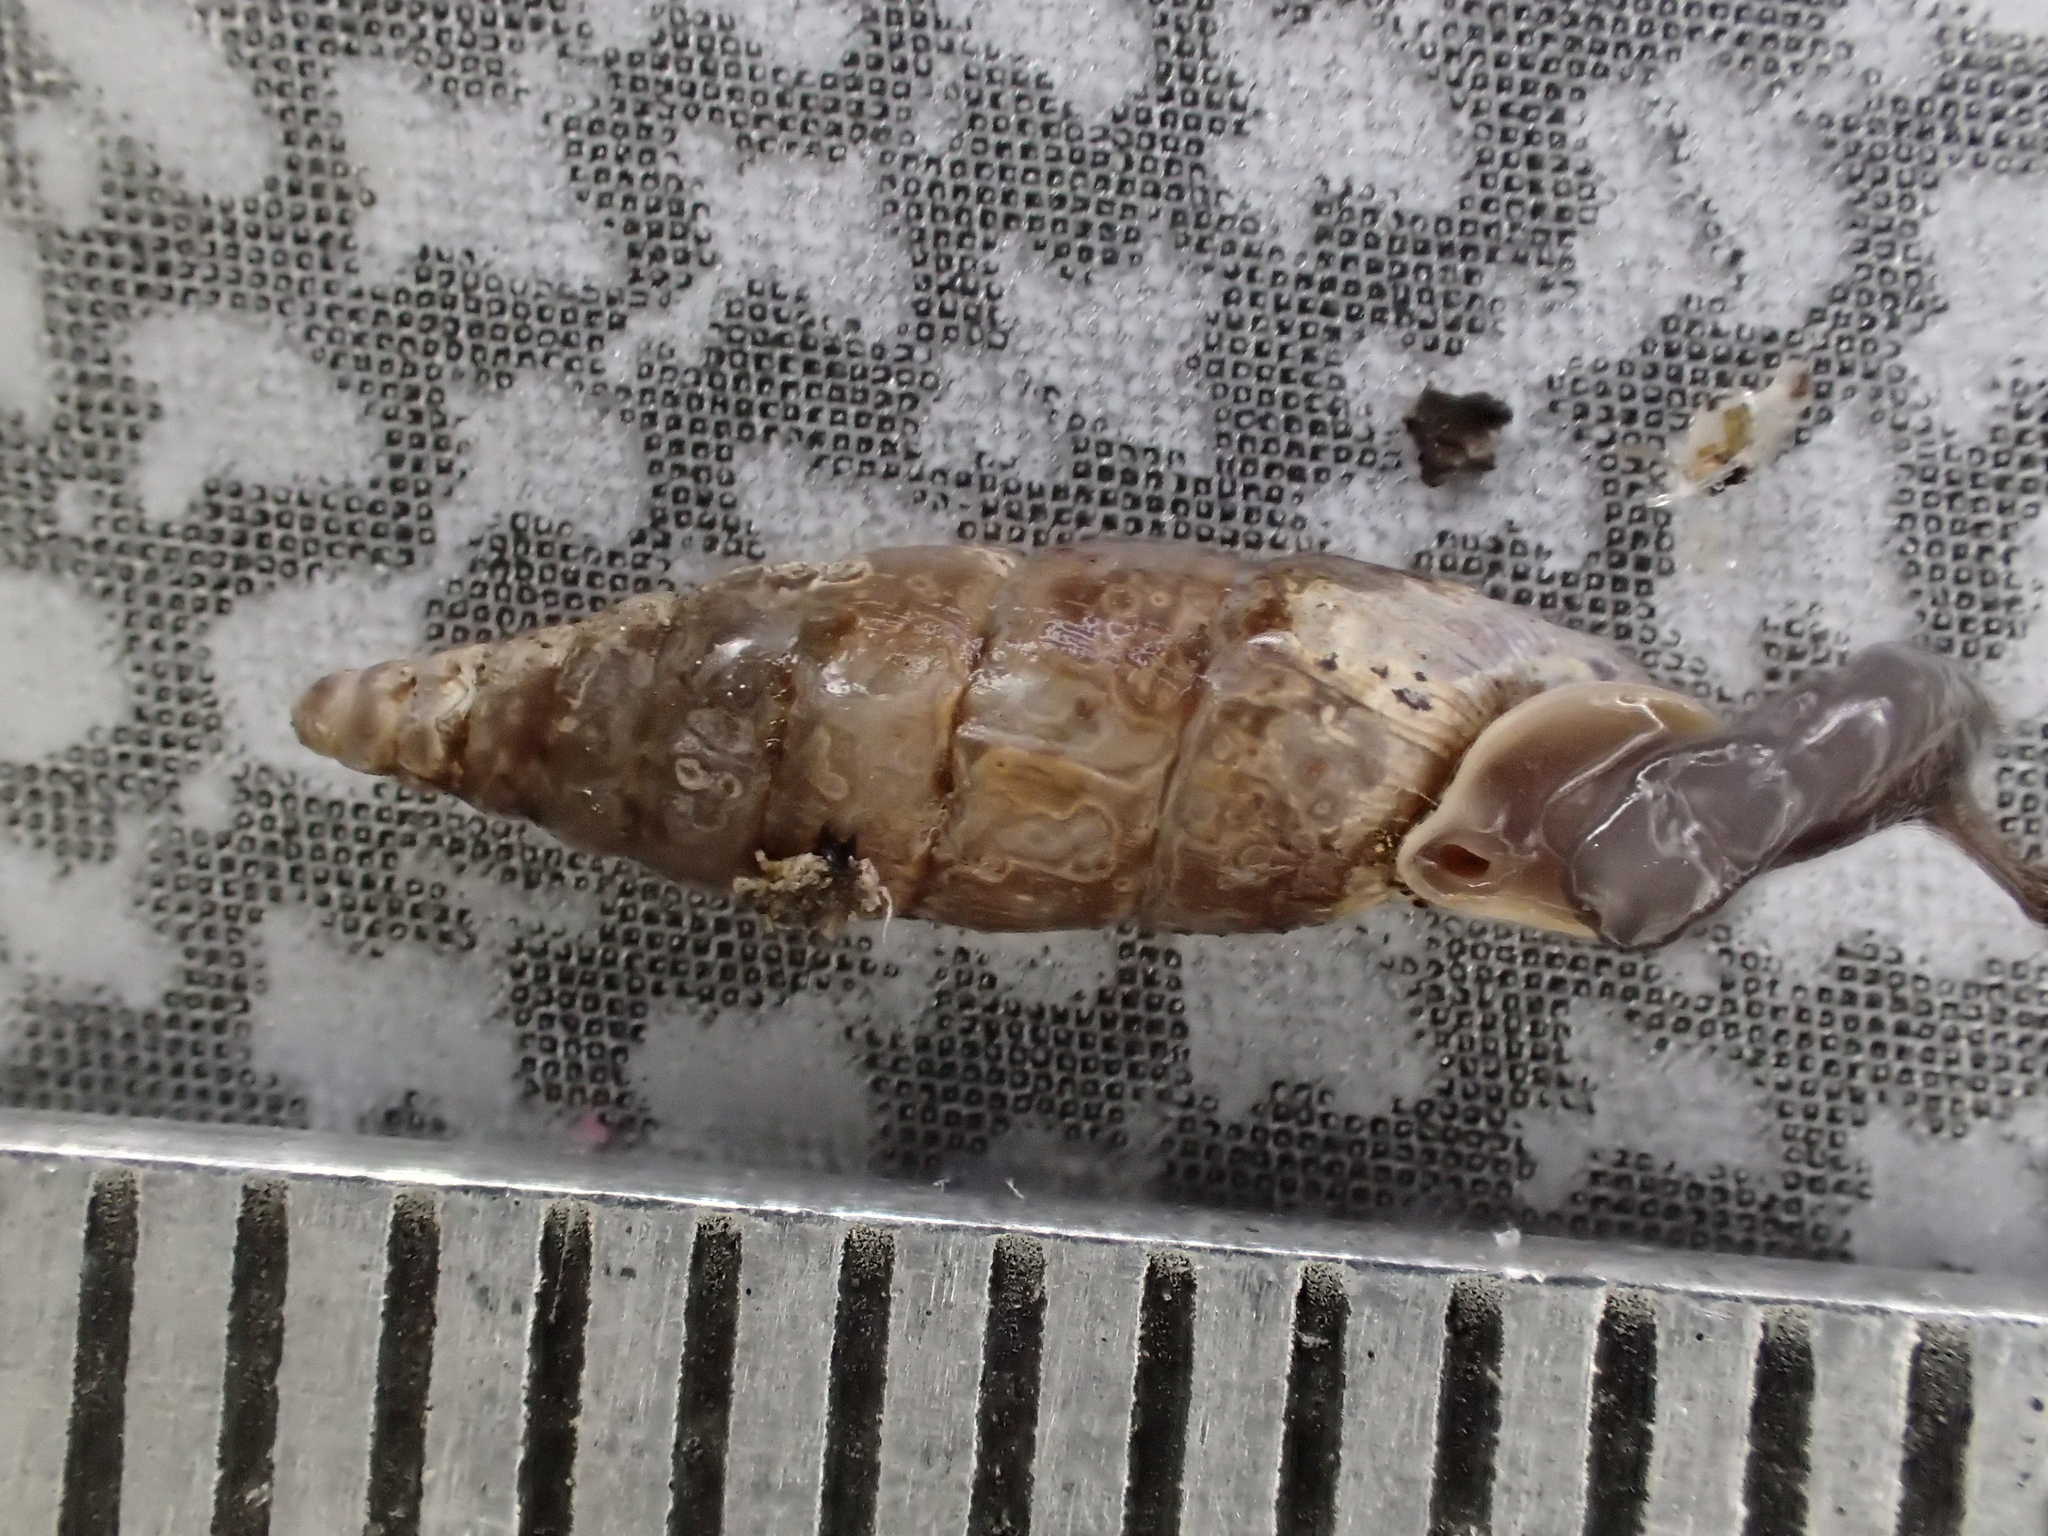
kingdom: Animalia
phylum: Mollusca
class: Gastropoda
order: Stylommatophora
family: Clausiliidae
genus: Clausilia
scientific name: Clausilia bidentata
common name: Two-toothed door snail
